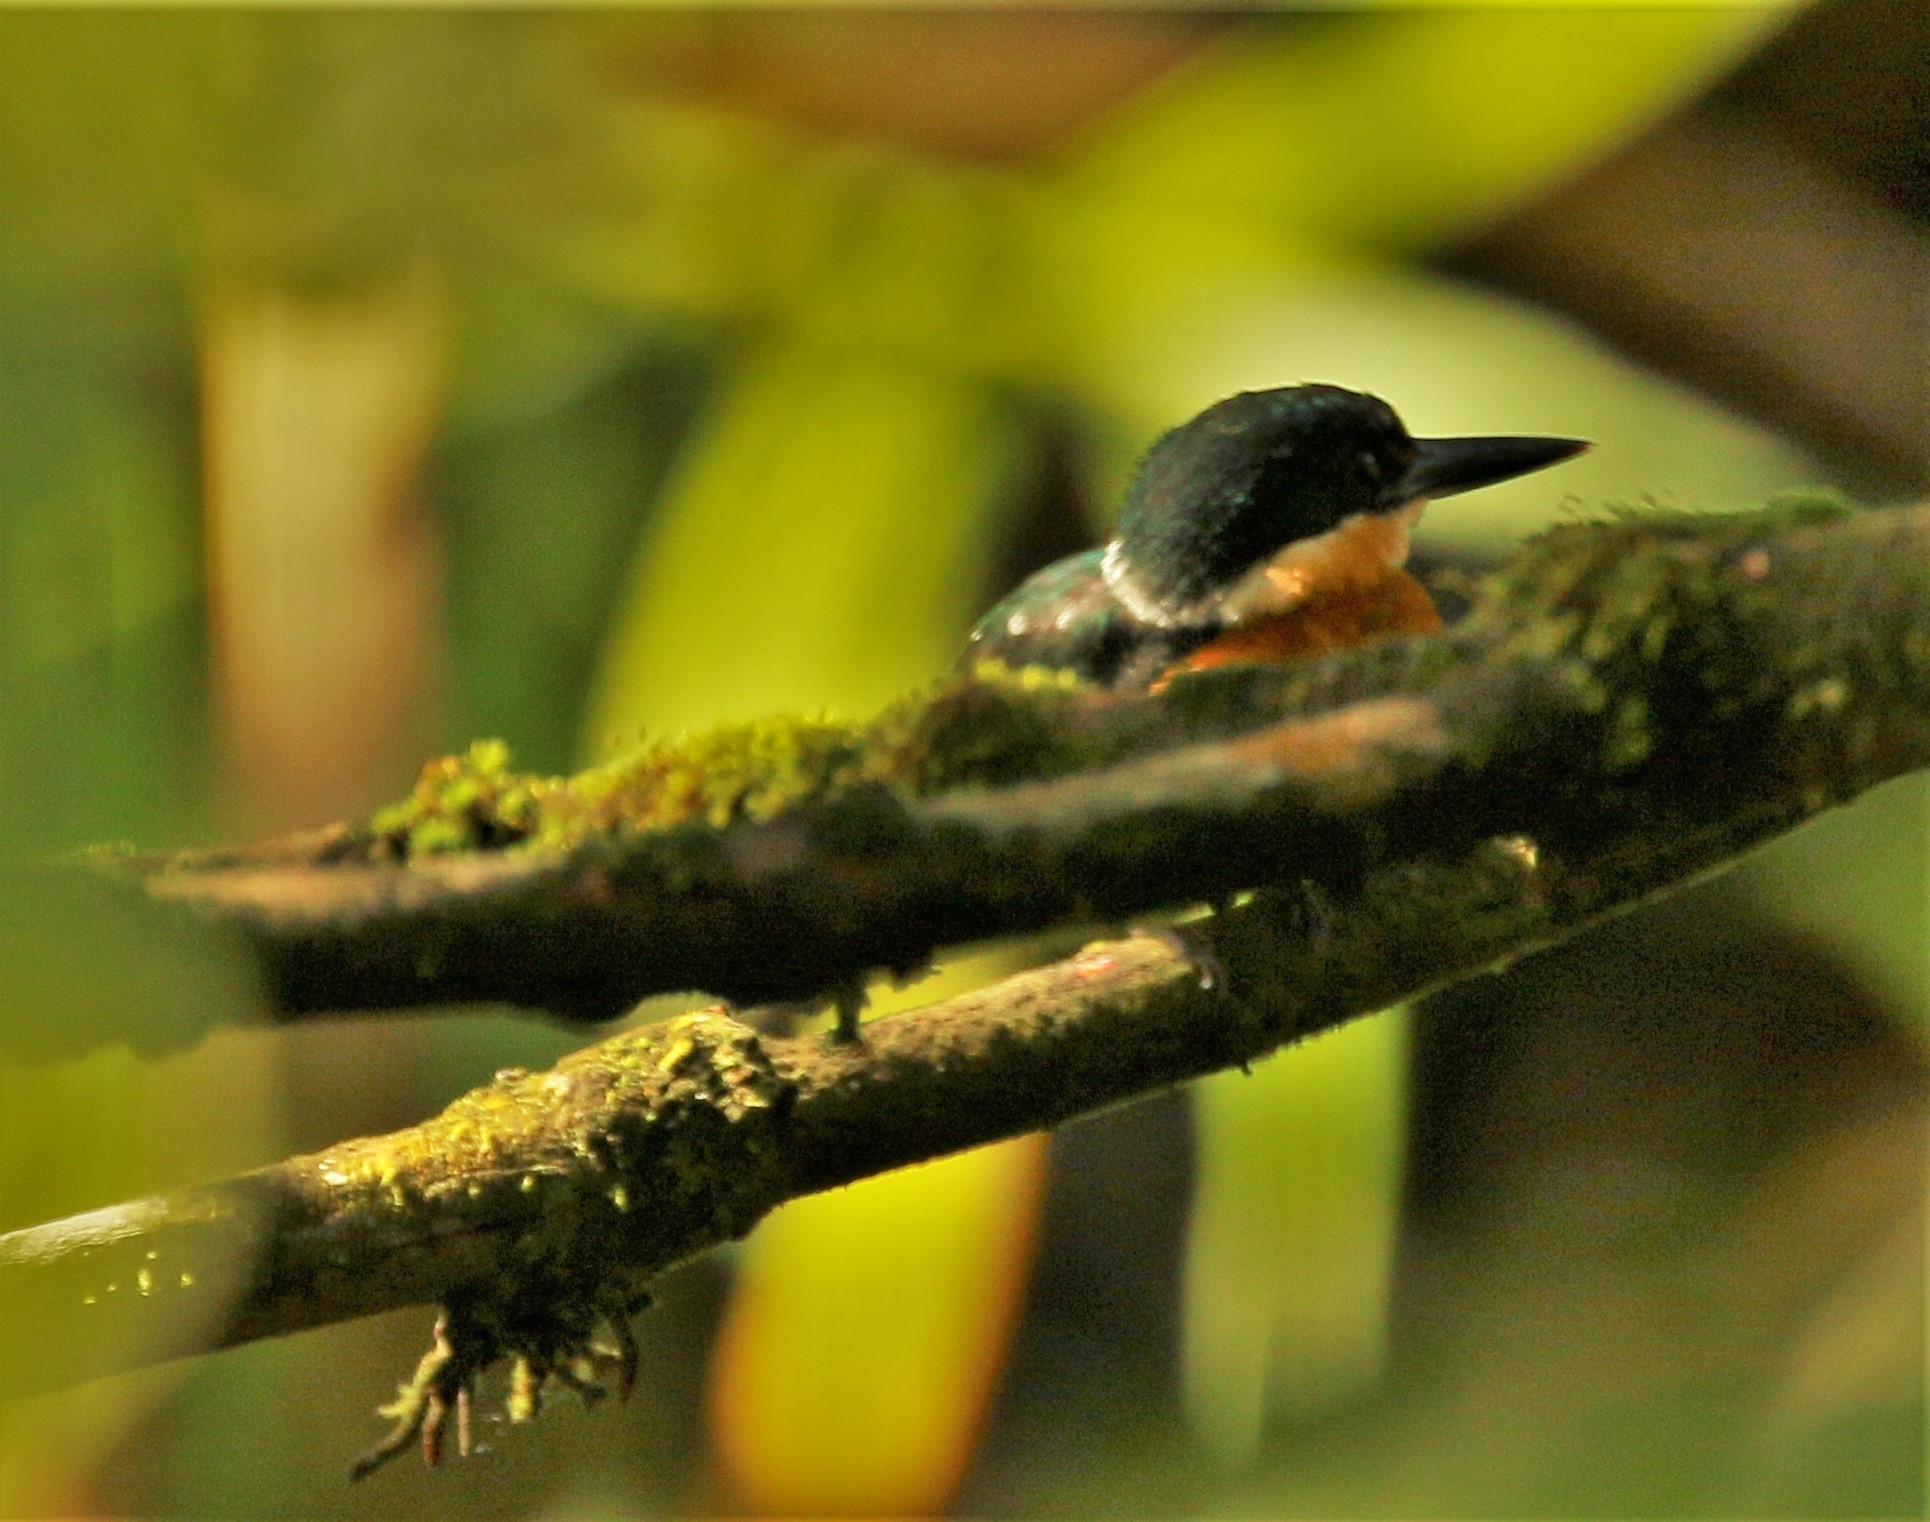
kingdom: Animalia
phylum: Chordata
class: Aves
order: Coraciiformes
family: Alcedinidae
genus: Chloroceryle
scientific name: Chloroceryle aenea
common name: American pygmy kingfisher
